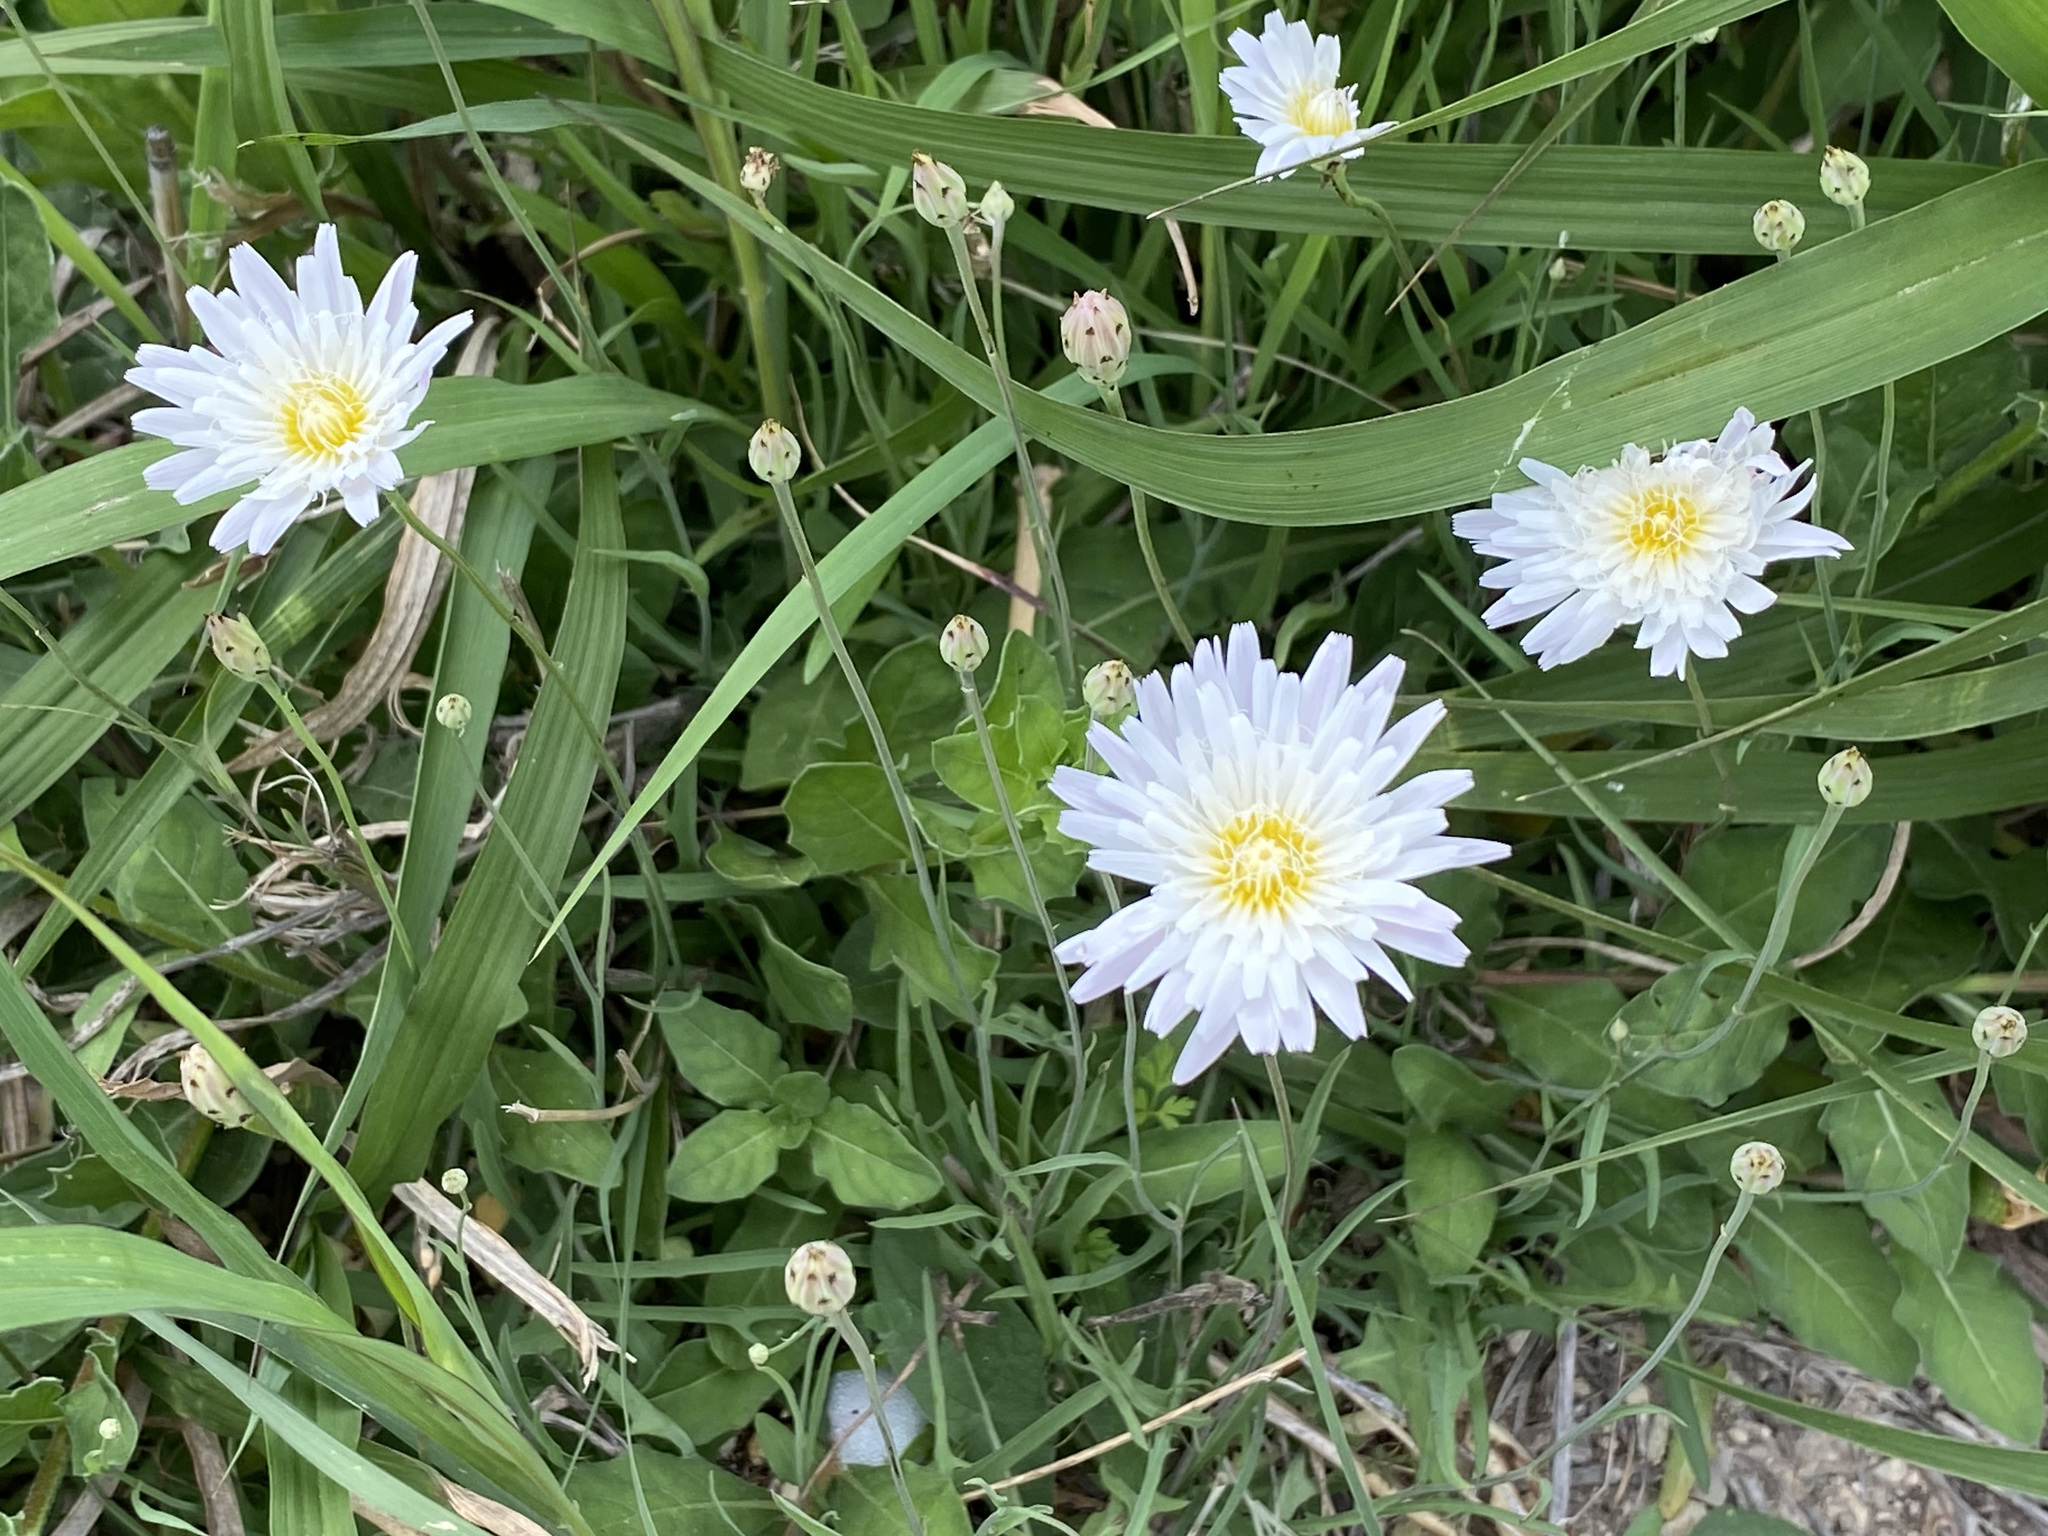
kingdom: Plantae
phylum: Tracheophyta
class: Magnoliopsida
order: Asterales
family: Asteraceae
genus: Pinaropappus
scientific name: Pinaropappus roseus
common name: Rock-lettuce
